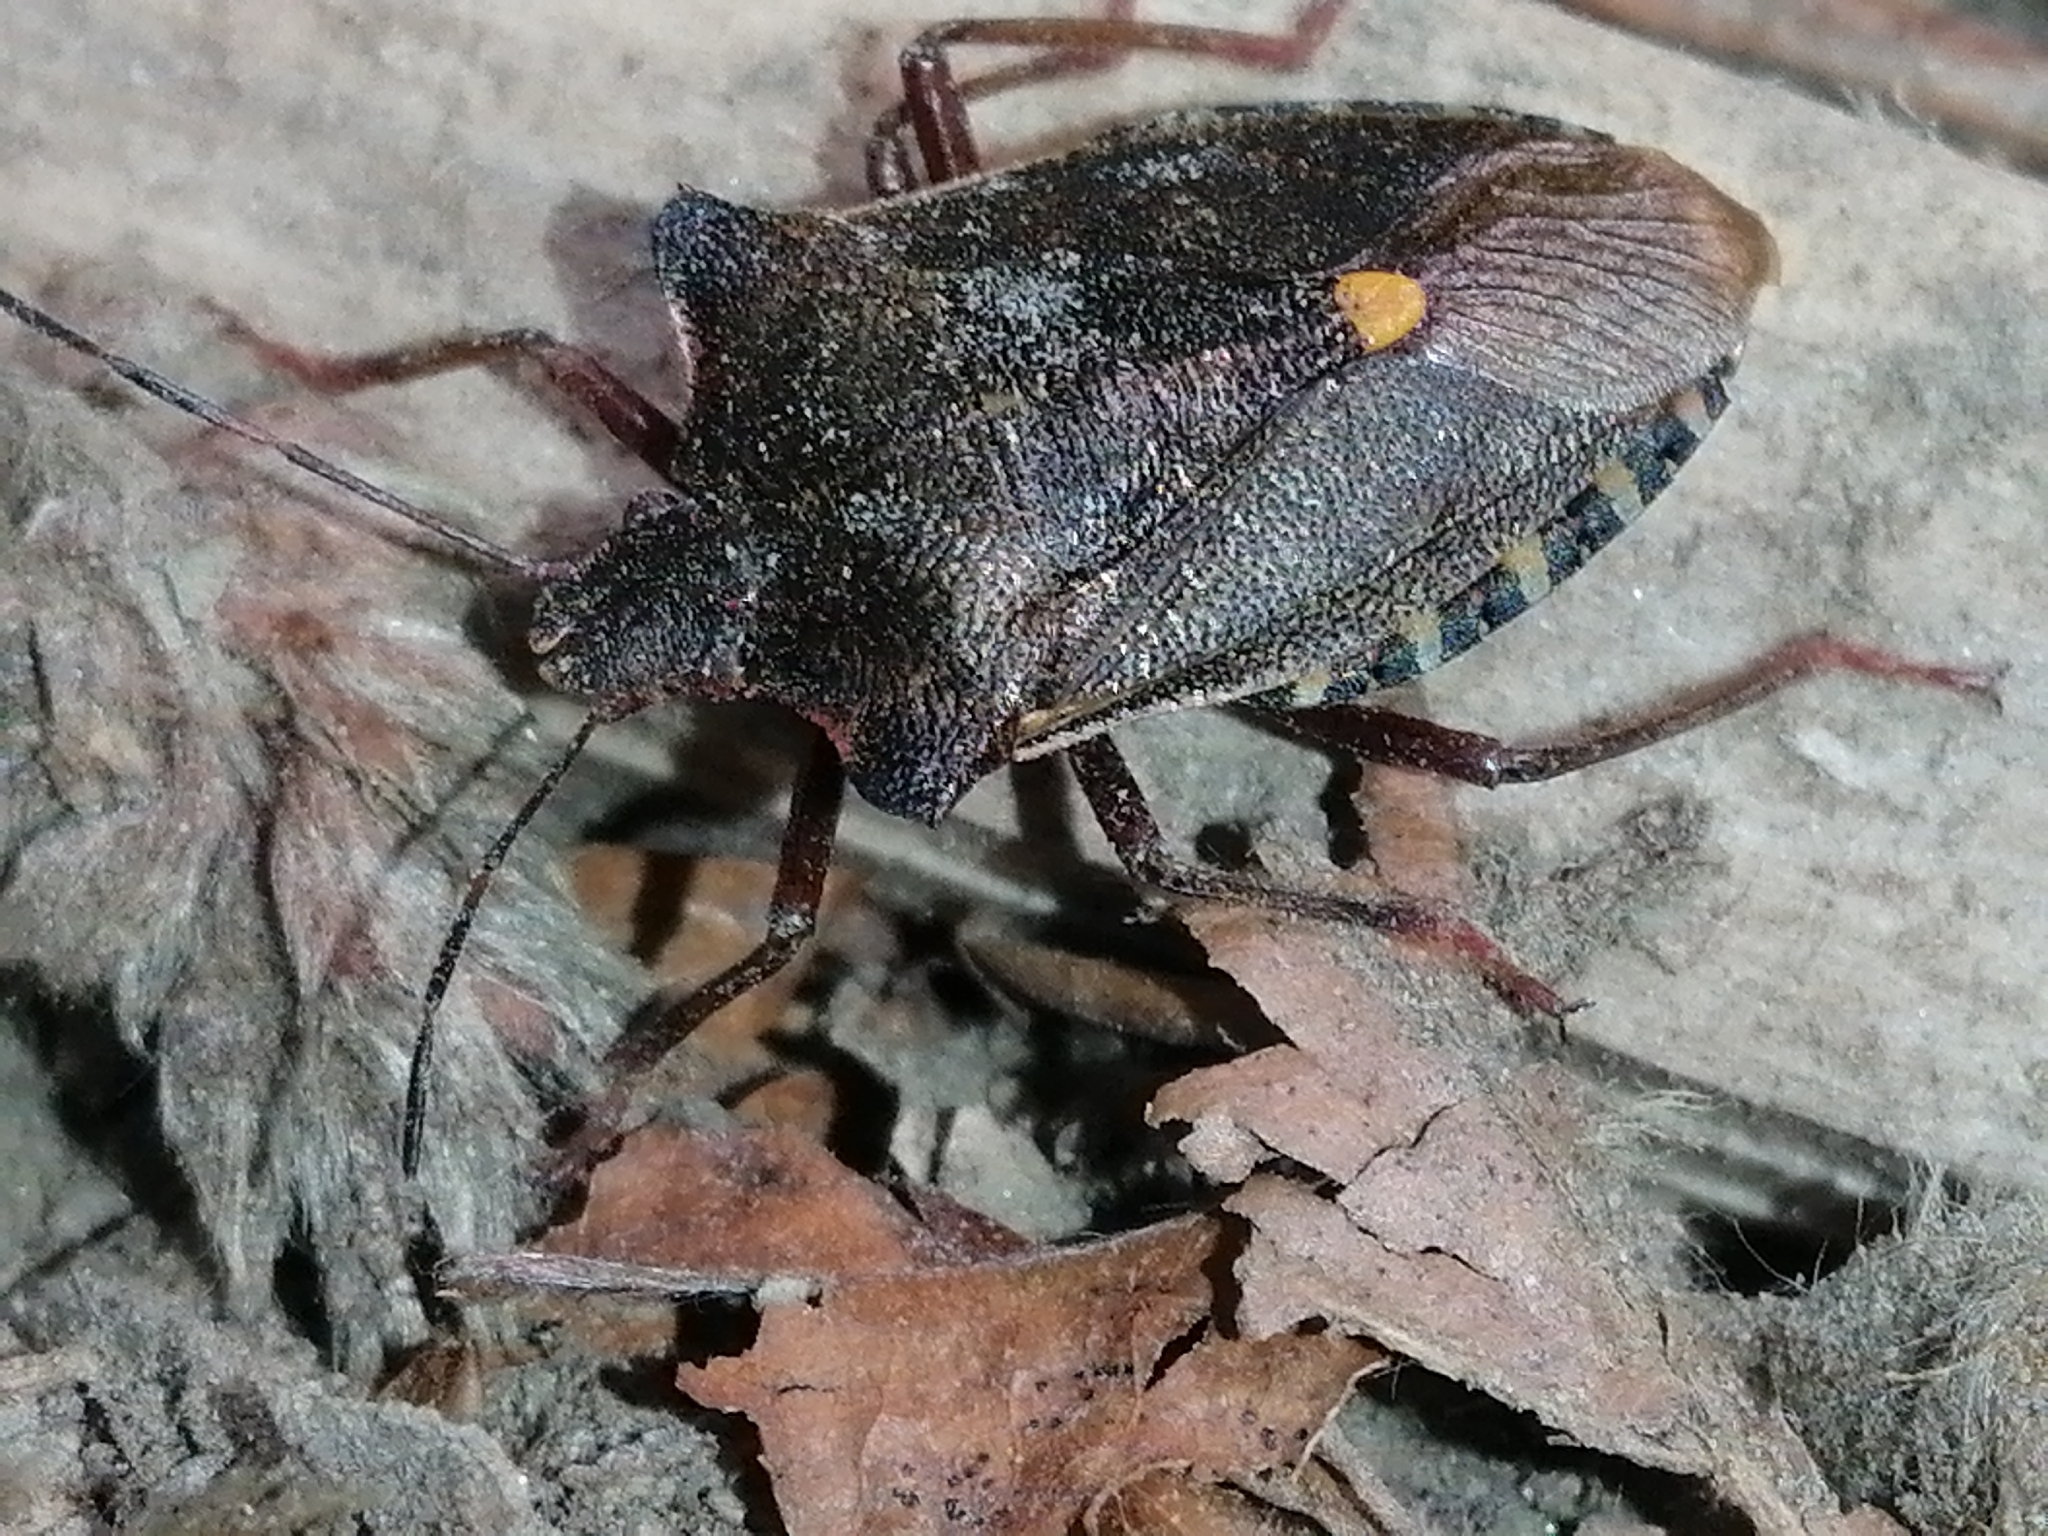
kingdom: Animalia
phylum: Arthropoda
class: Insecta
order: Hemiptera
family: Pentatomidae
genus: Pentatoma
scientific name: Pentatoma rufipes
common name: Forest bug
